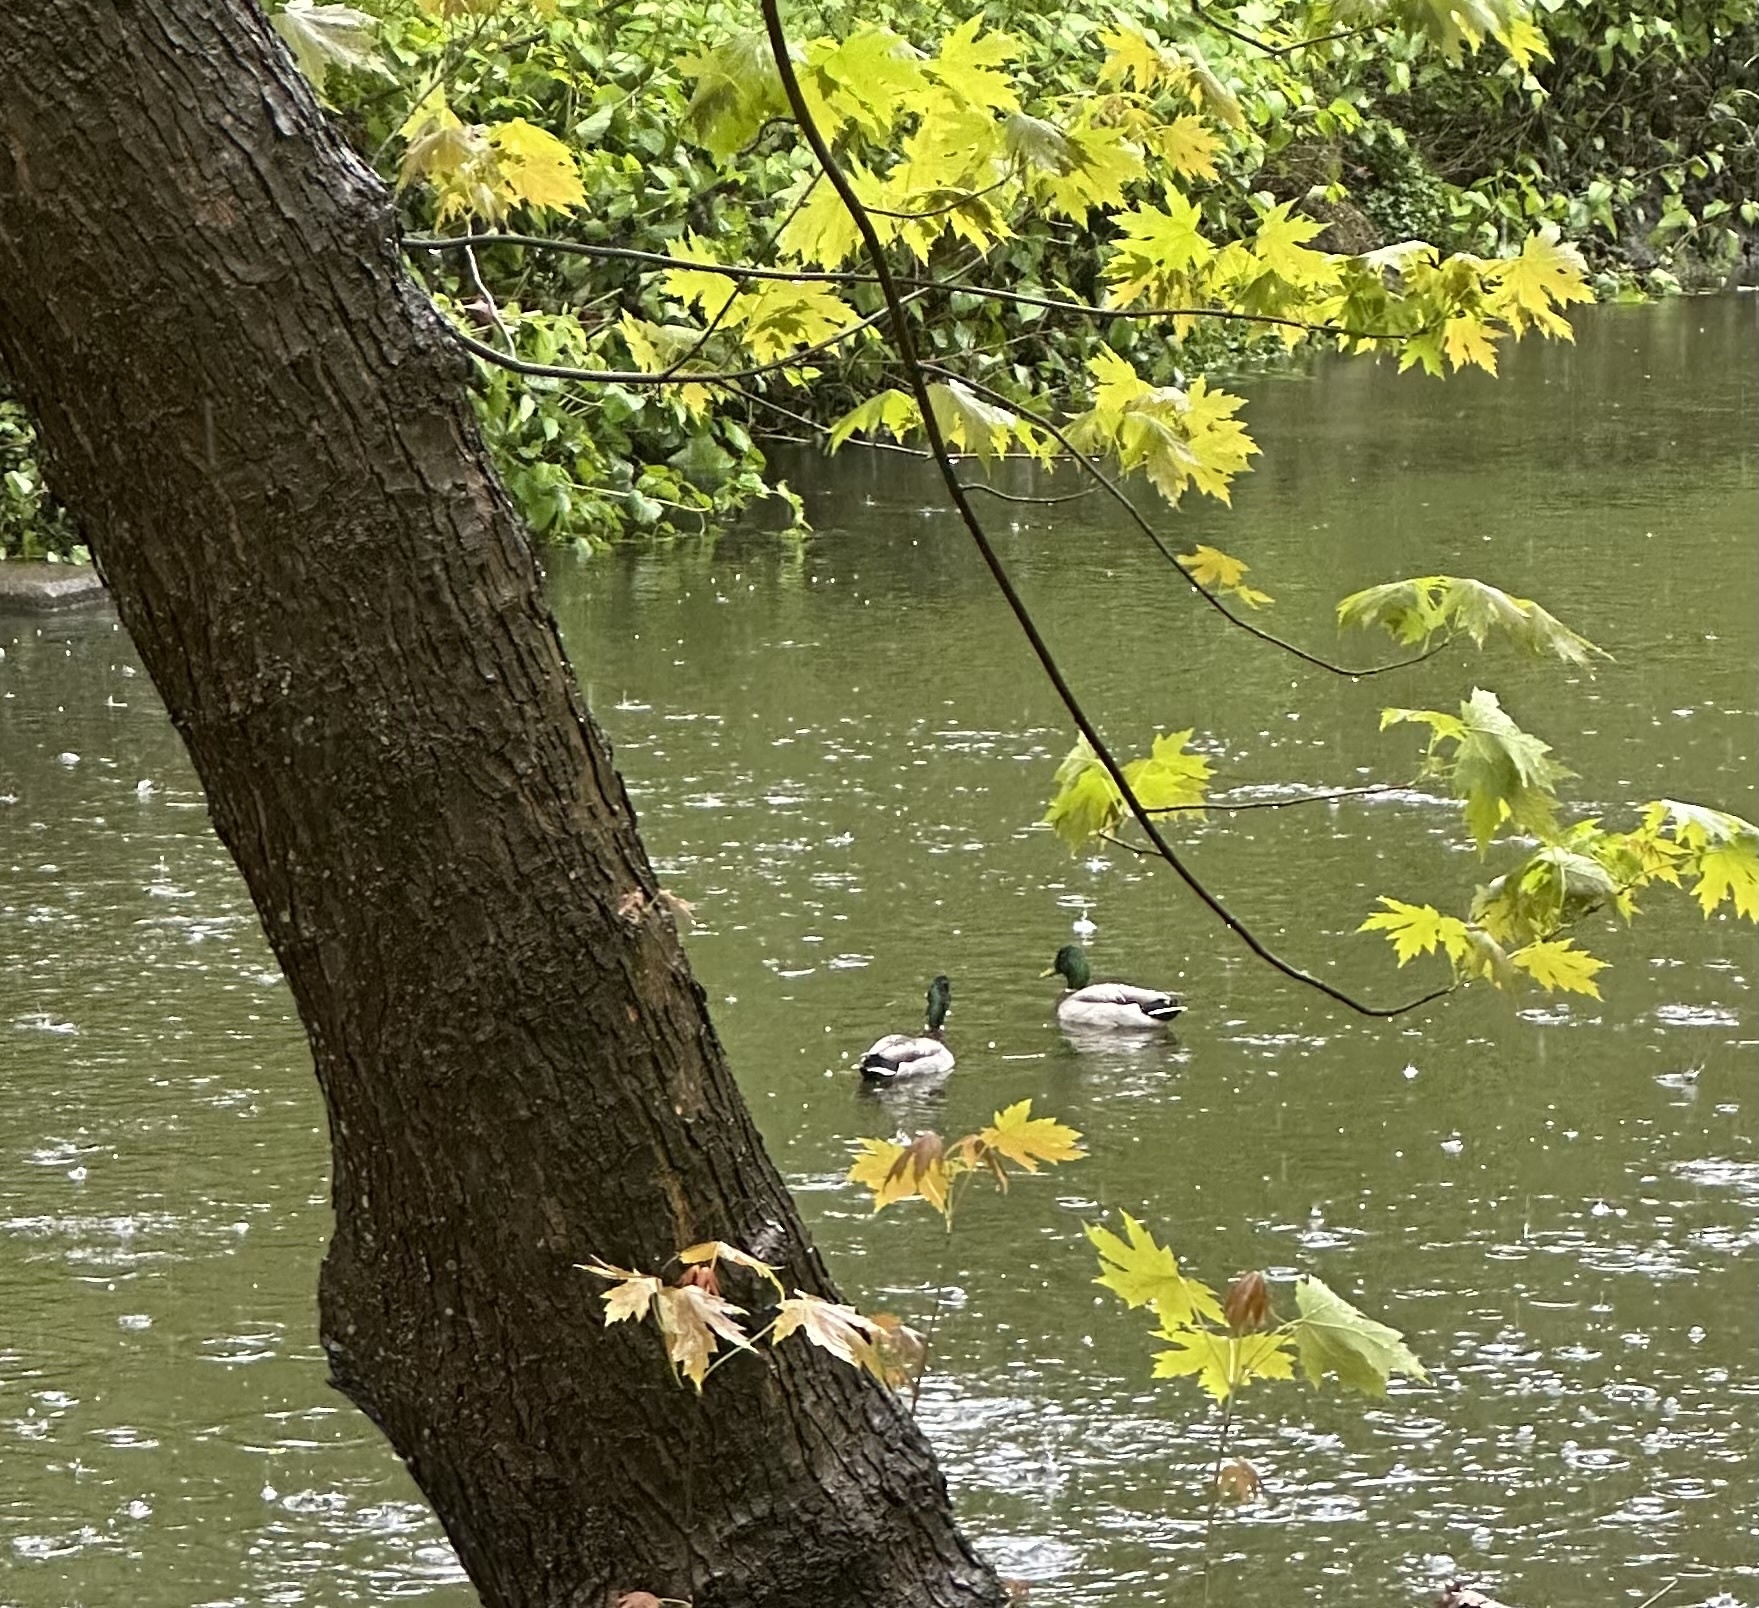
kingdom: Animalia
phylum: Chordata
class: Aves
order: Anseriformes
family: Anatidae
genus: Anas
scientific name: Anas platyrhynchos
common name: Mallard
